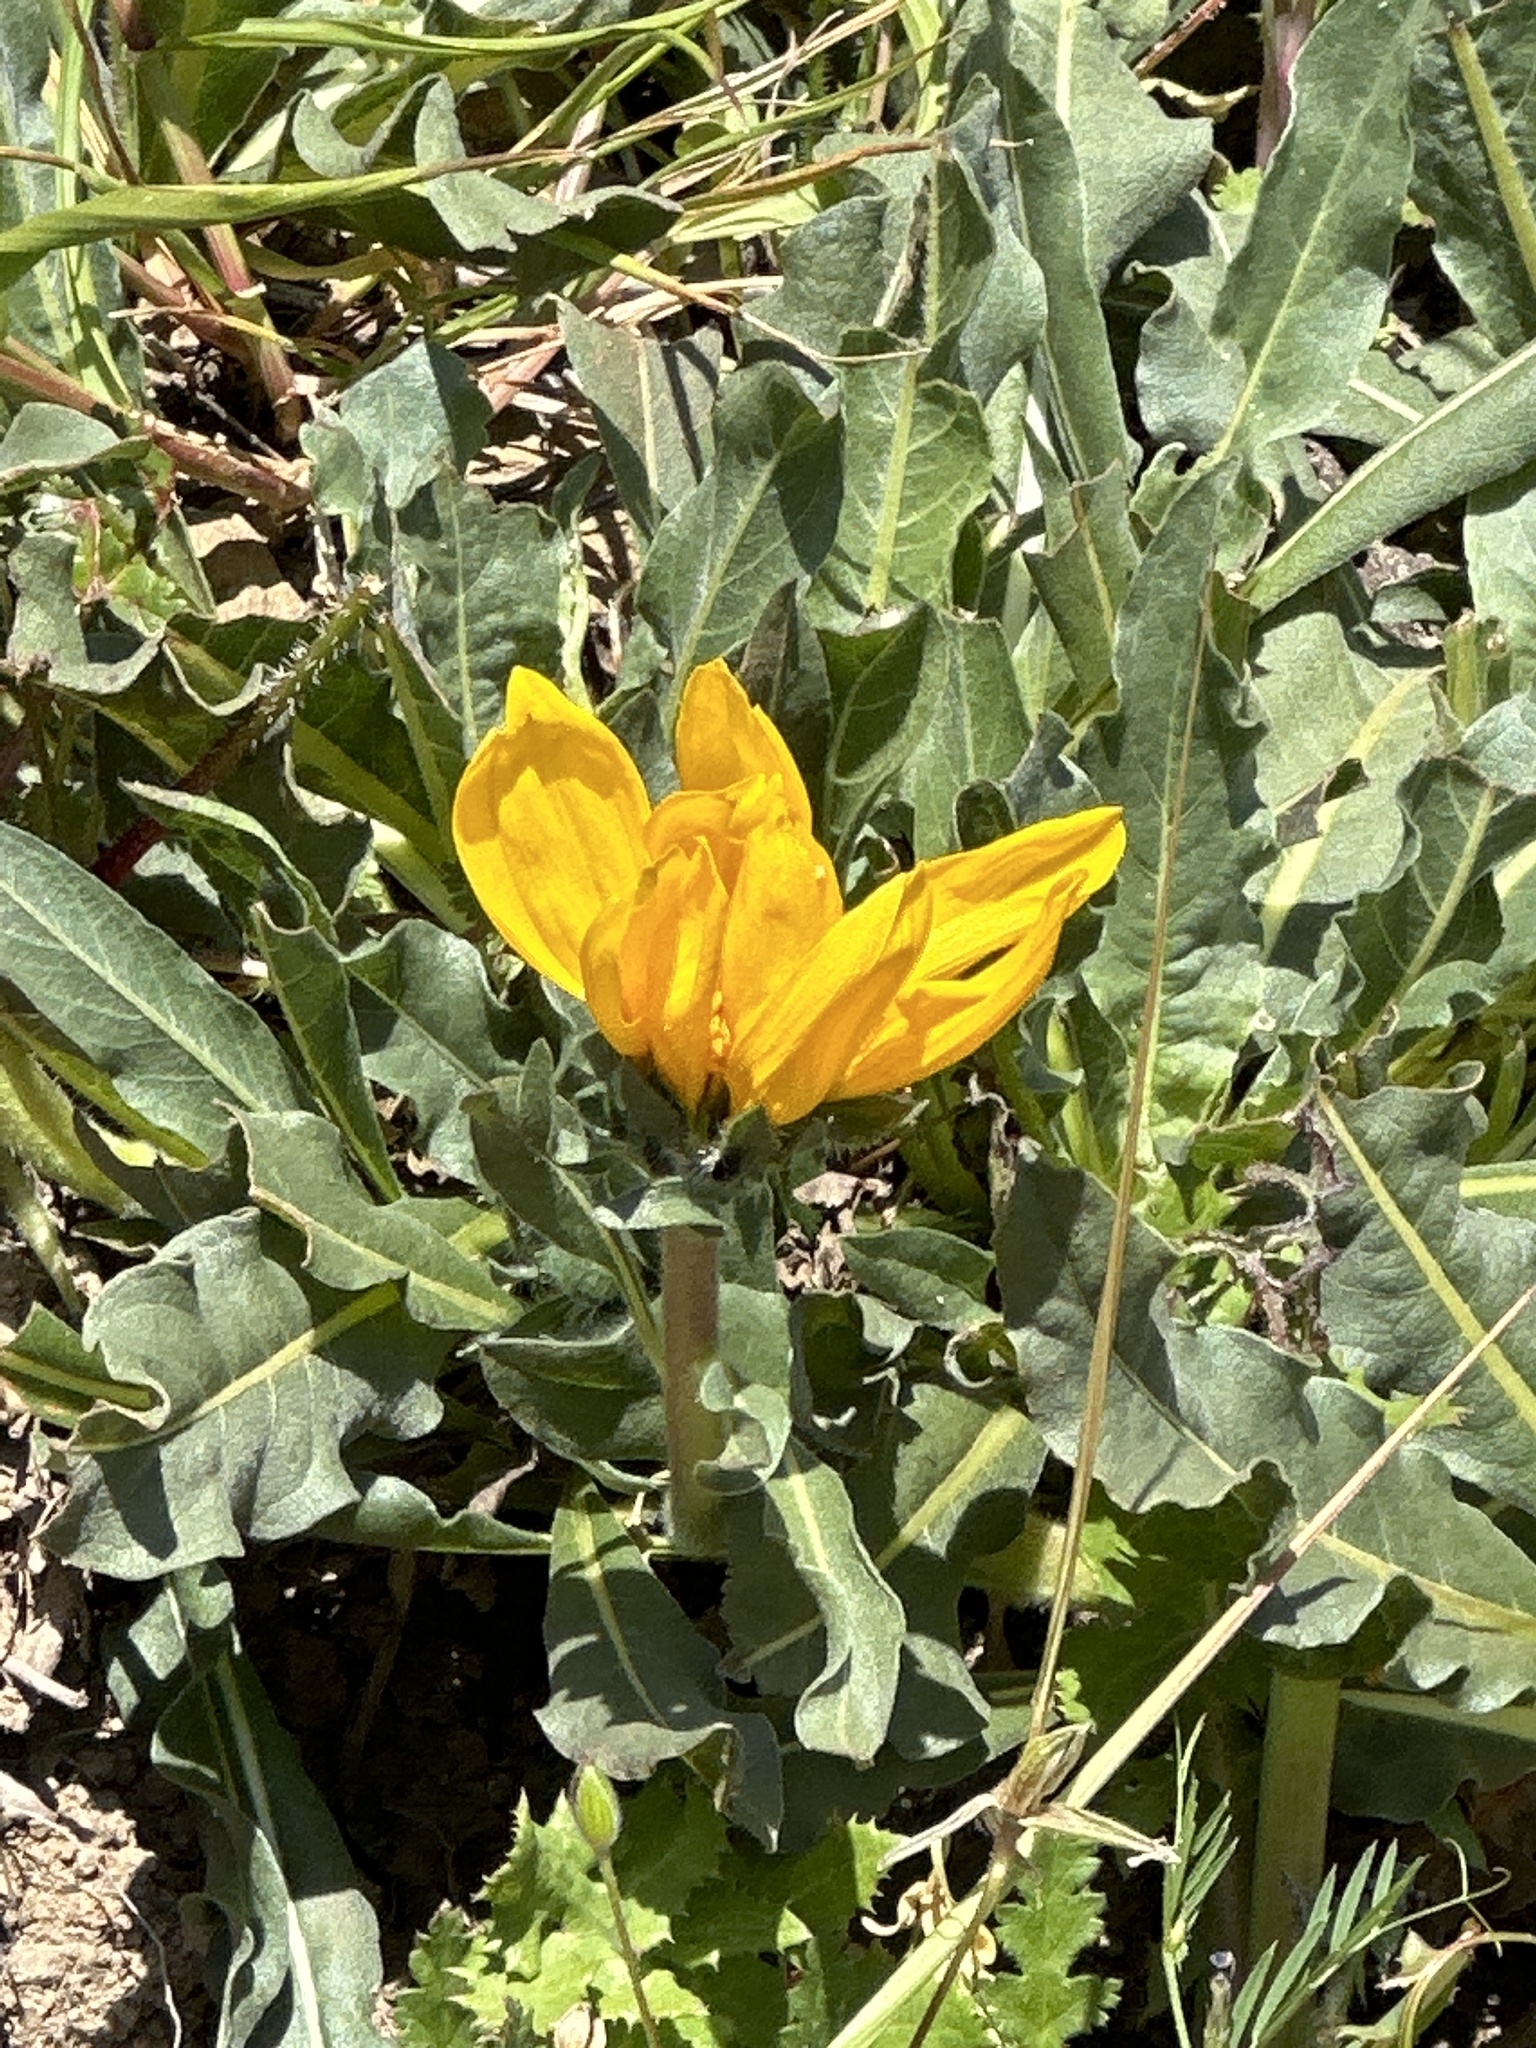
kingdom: Plantae
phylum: Tracheophyta
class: Magnoliopsida
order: Asterales
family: Asteraceae
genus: Wyethia
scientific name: Wyethia angustifolia
